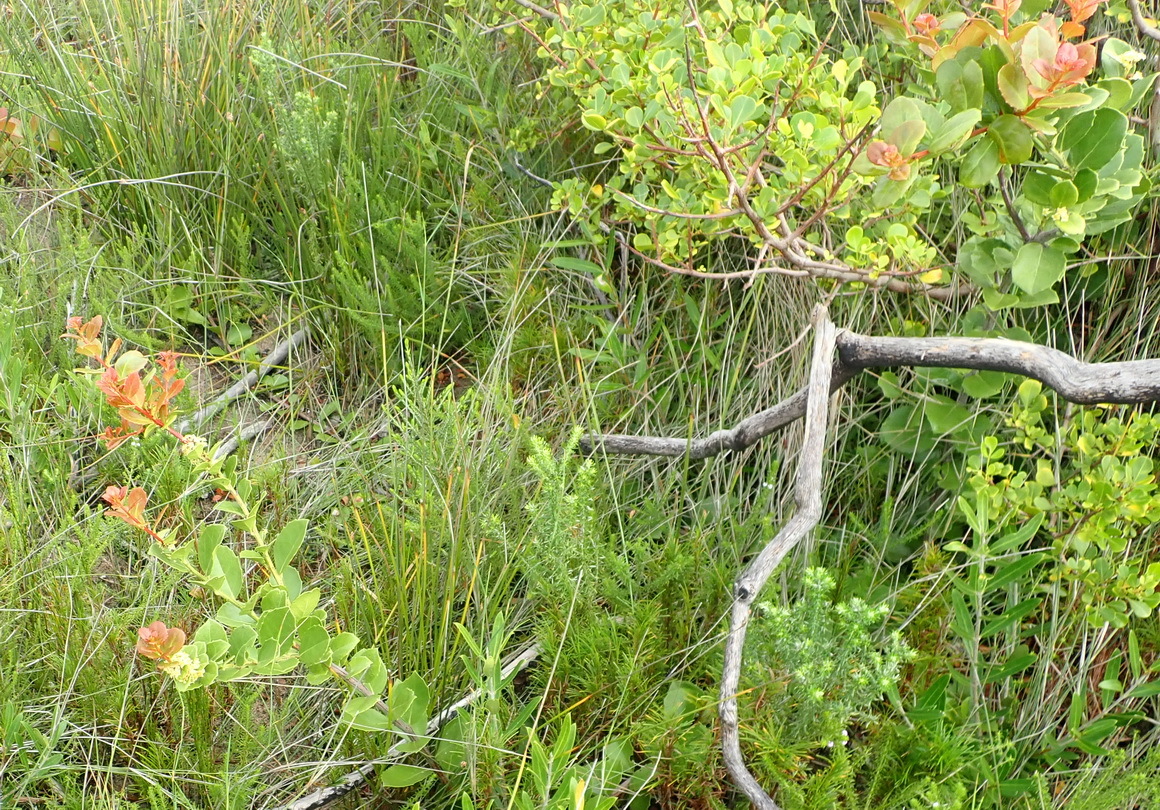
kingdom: Plantae
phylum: Tracheophyta
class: Magnoliopsida
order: Celastrales
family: Celastraceae
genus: Gymnosporia
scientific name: Gymnosporia procumbens
